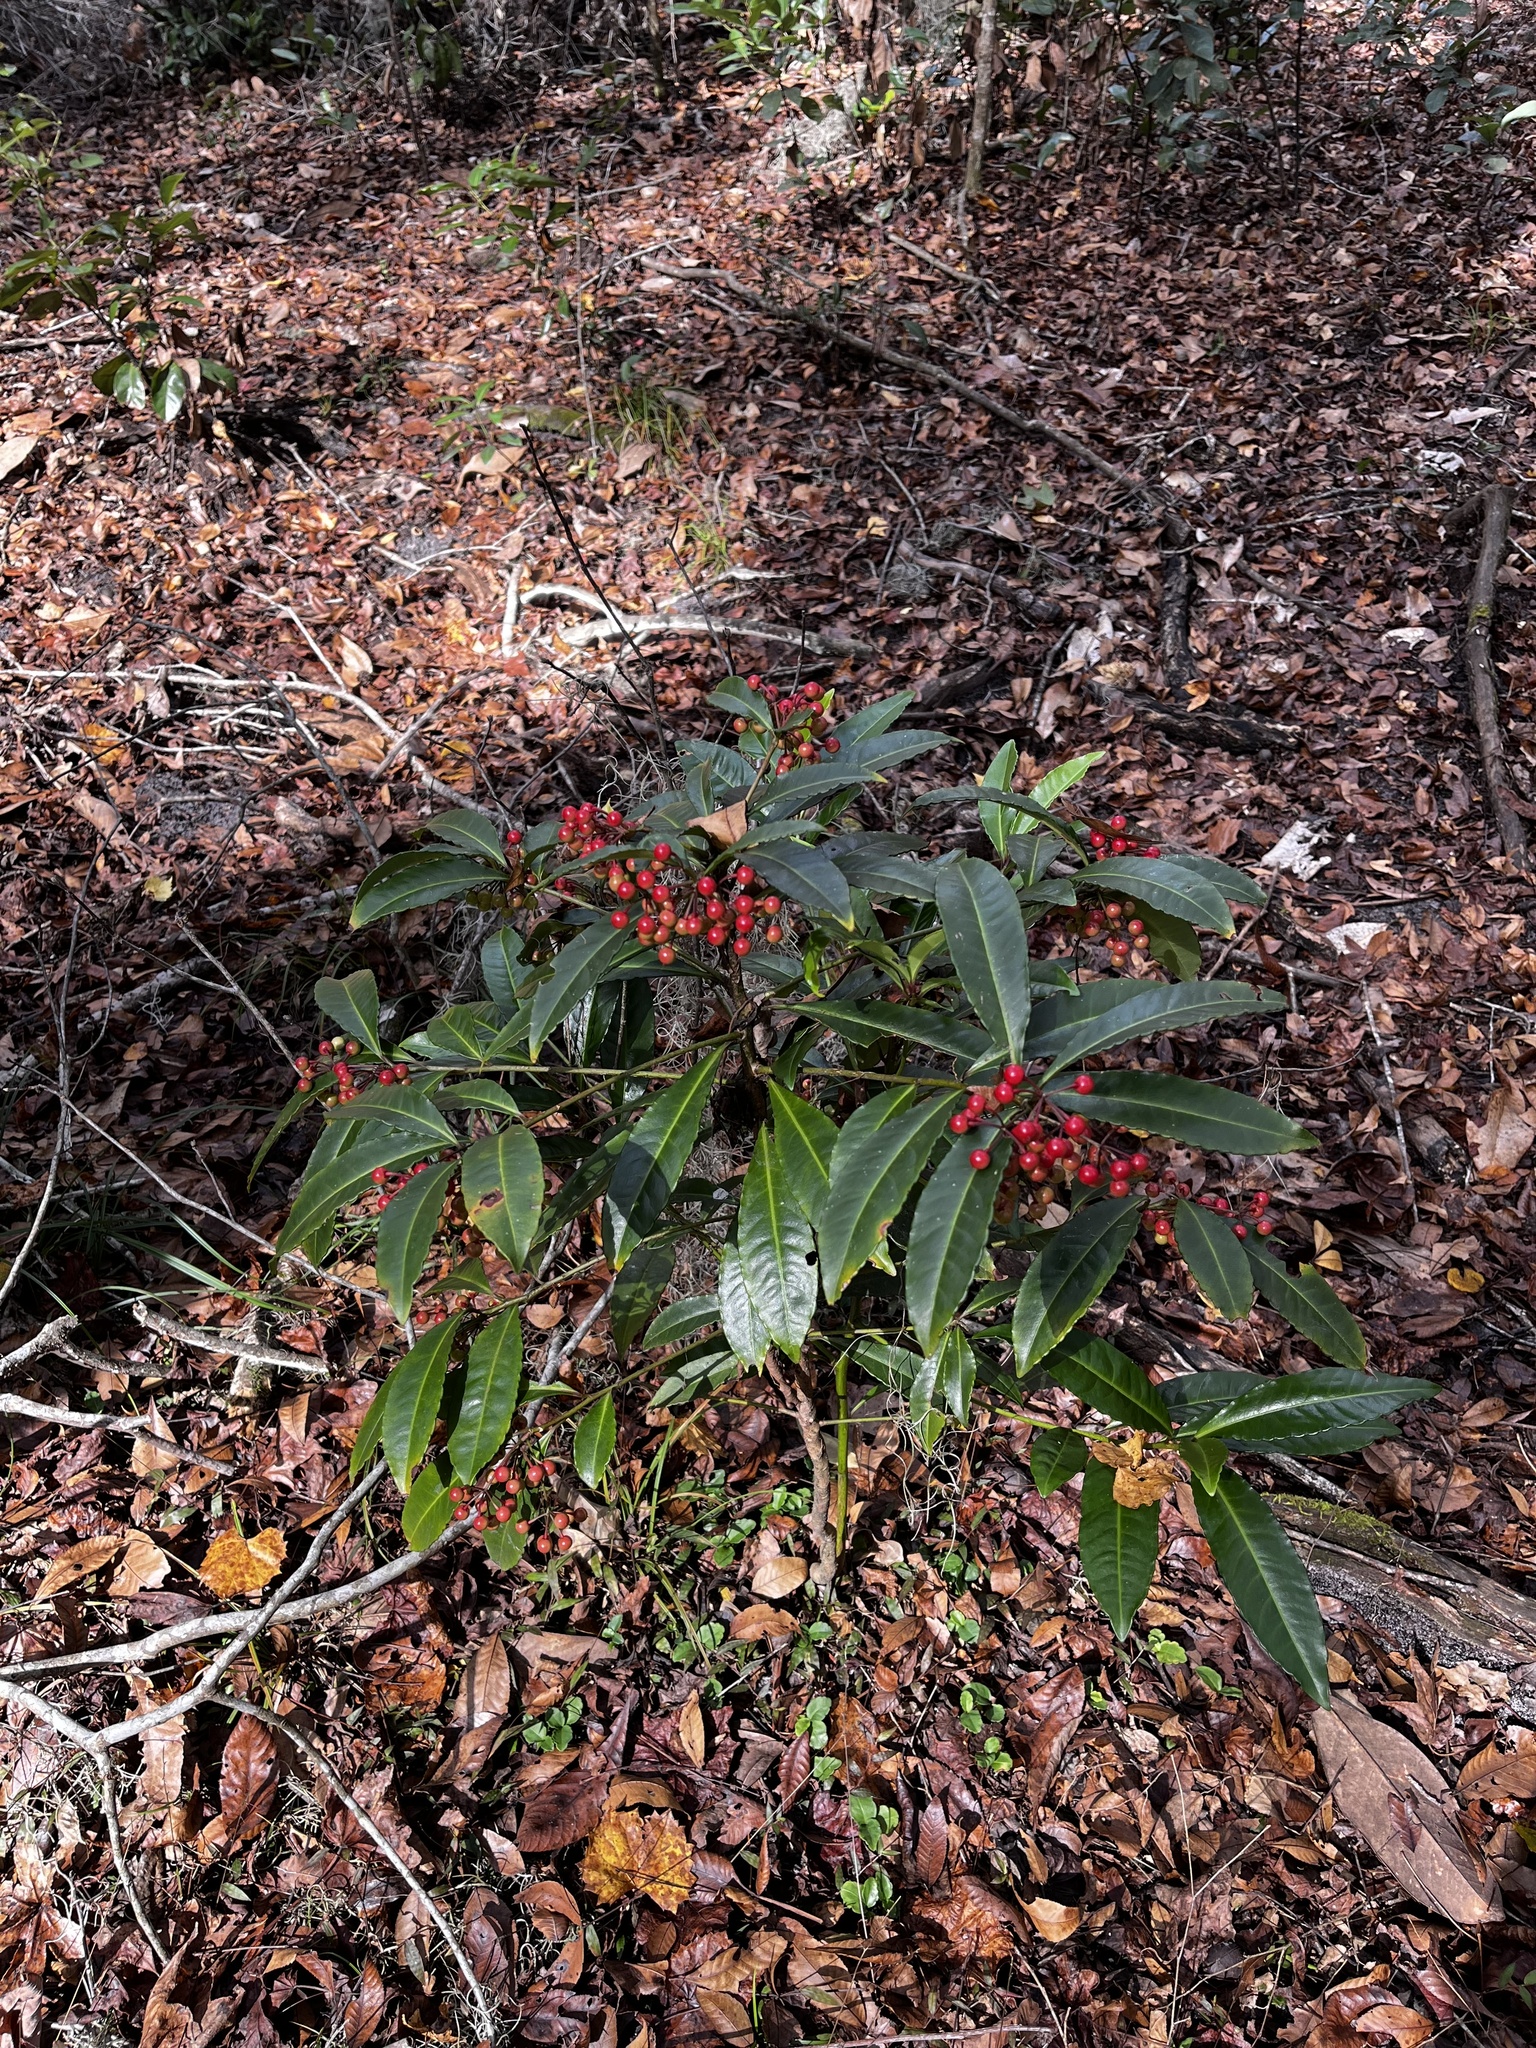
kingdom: Plantae
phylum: Tracheophyta
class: Magnoliopsida
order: Ericales
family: Primulaceae
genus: Ardisia
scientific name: Ardisia crenata
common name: Hen's eyes
